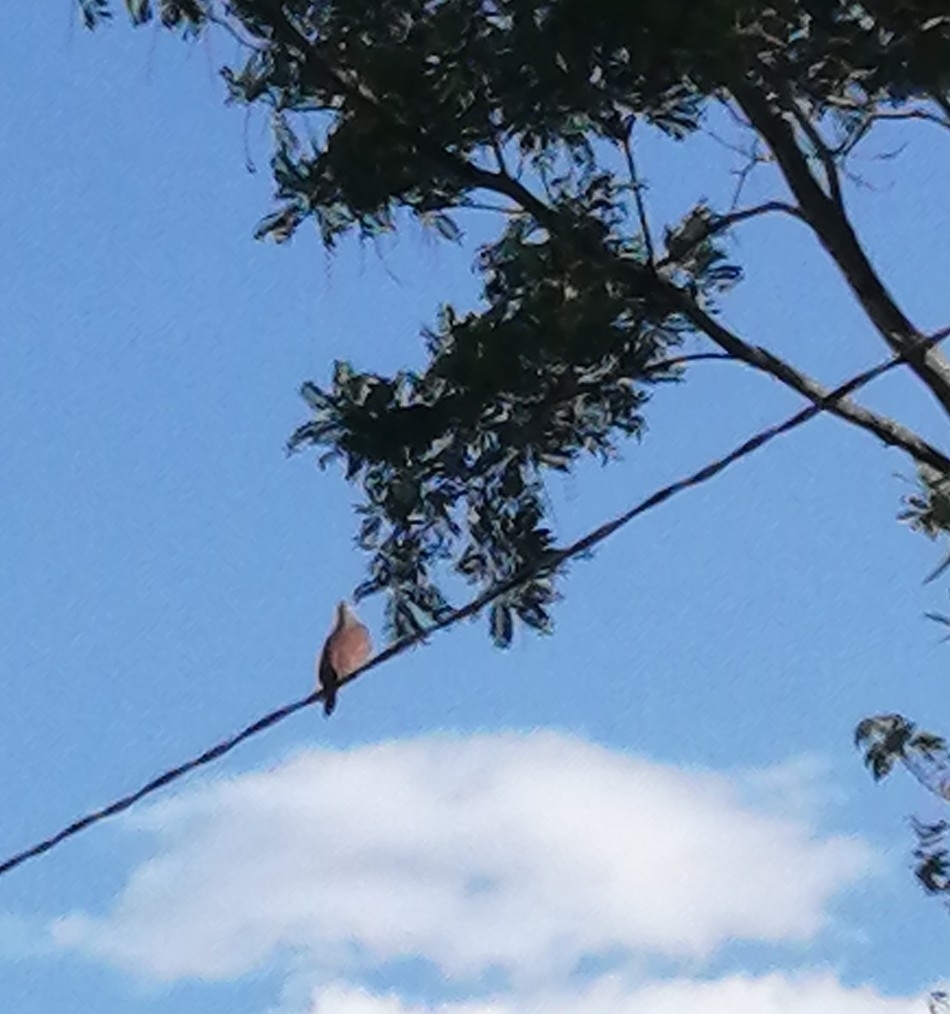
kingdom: Animalia
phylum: Chordata
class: Aves
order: Columbiformes
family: Columbidae
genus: Columbina
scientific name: Columbina talpacoti
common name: Ruddy ground dove
